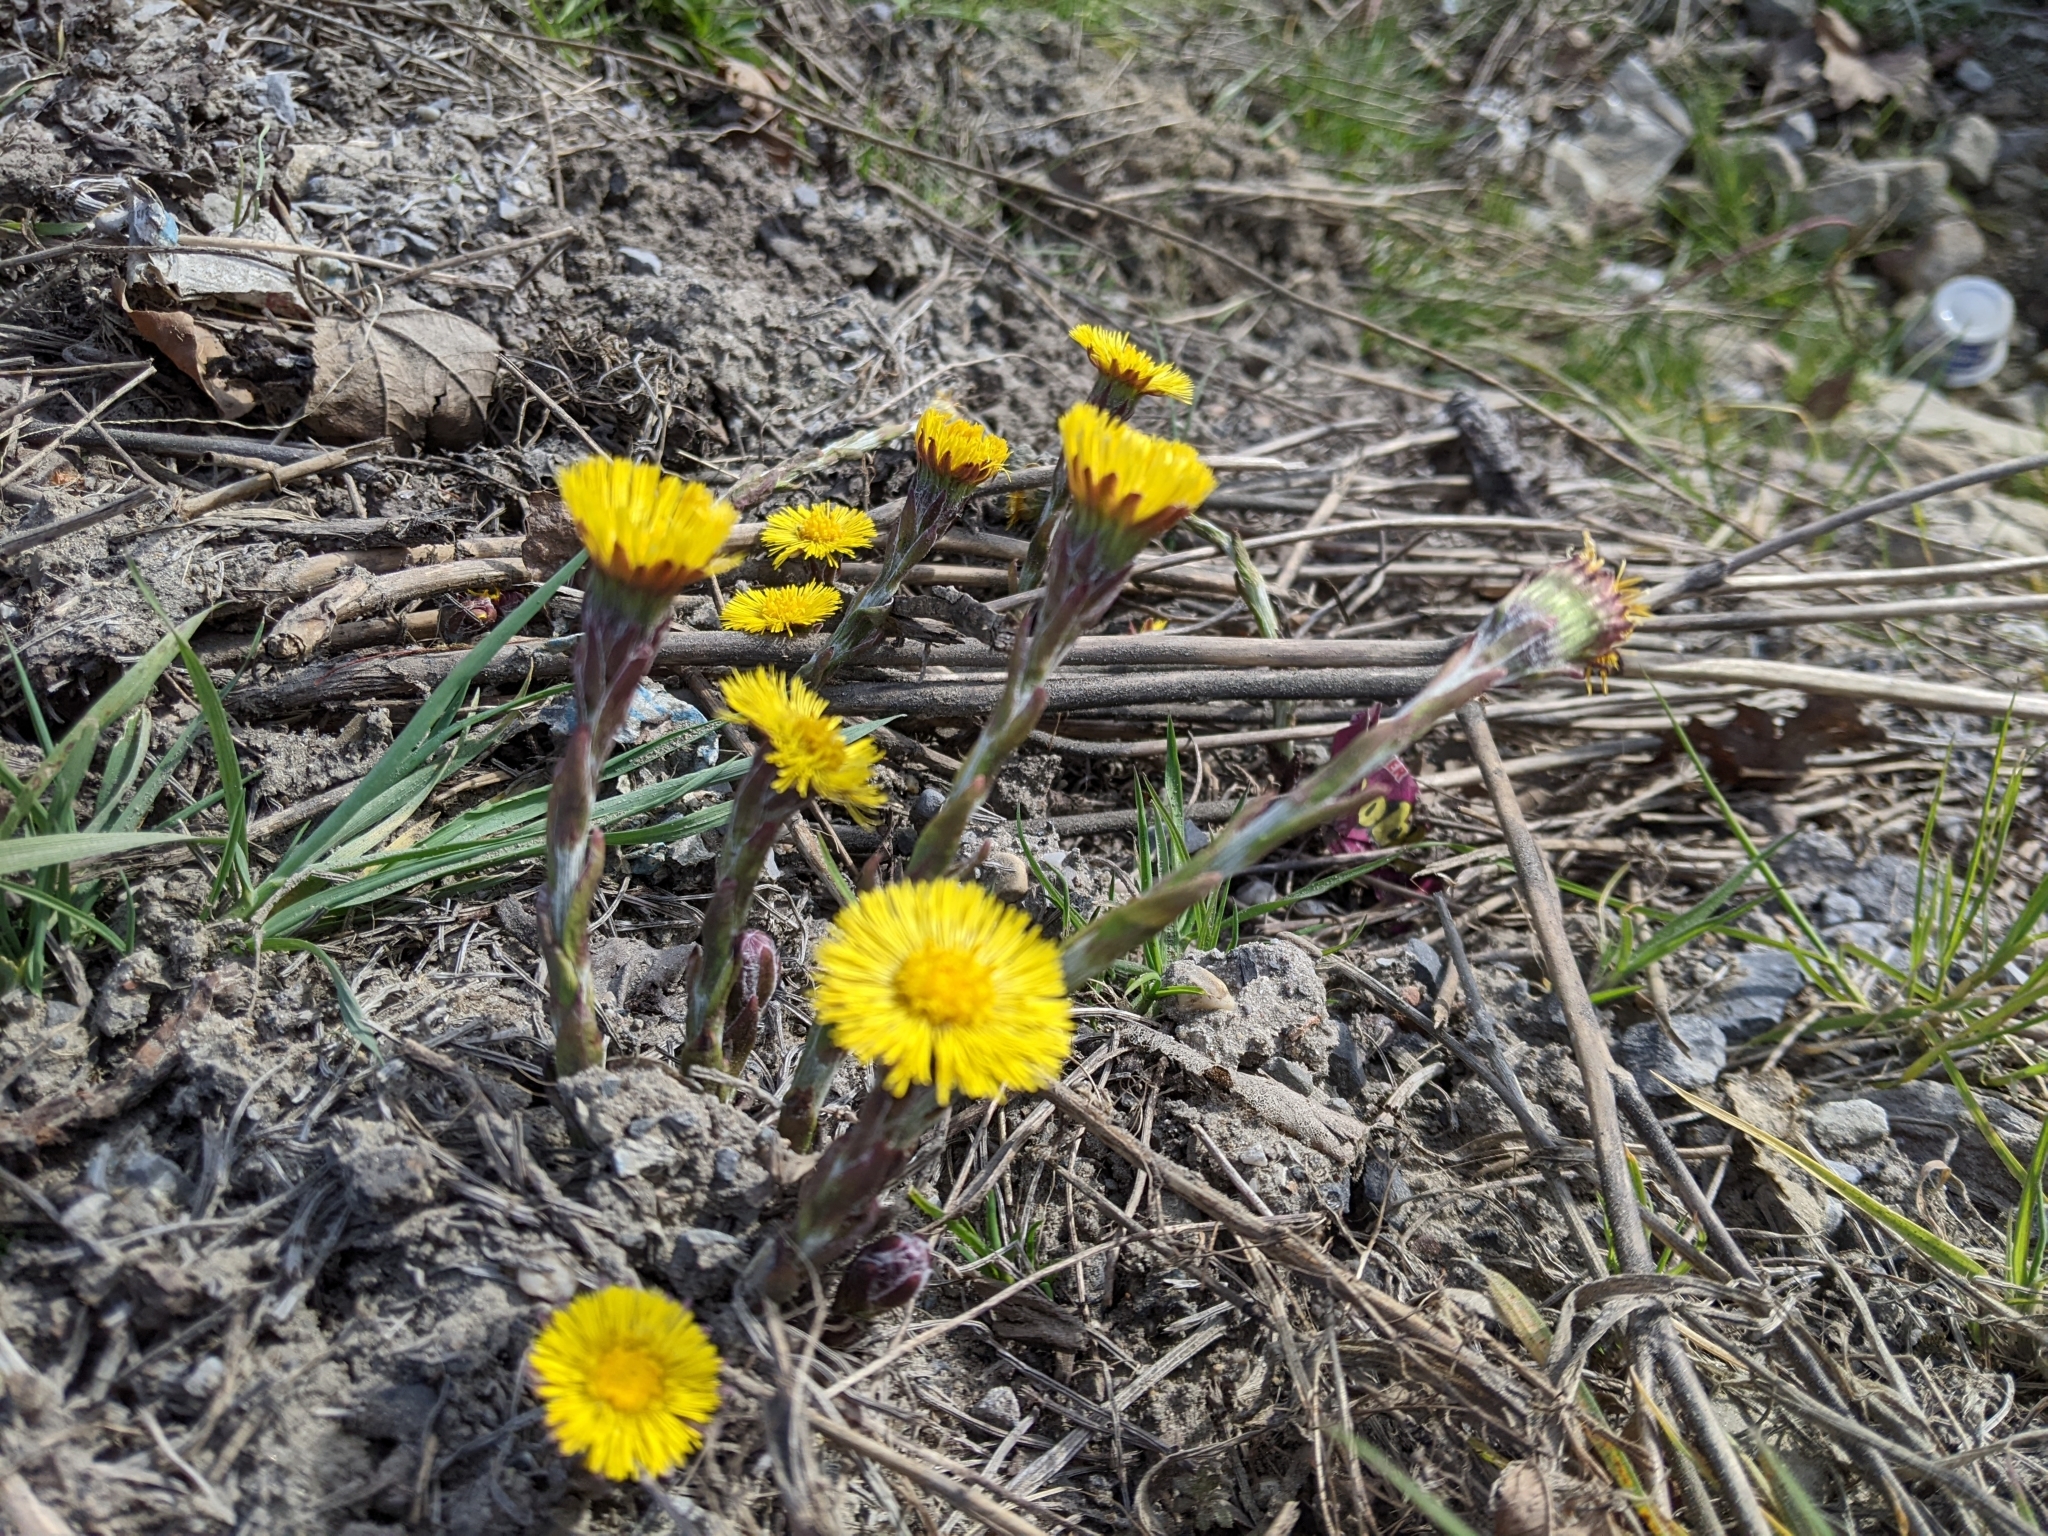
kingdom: Plantae
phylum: Tracheophyta
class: Magnoliopsida
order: Asterales
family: Asteraceae
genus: Tussilago
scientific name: Tussilago farfara
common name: Coltsfoot
